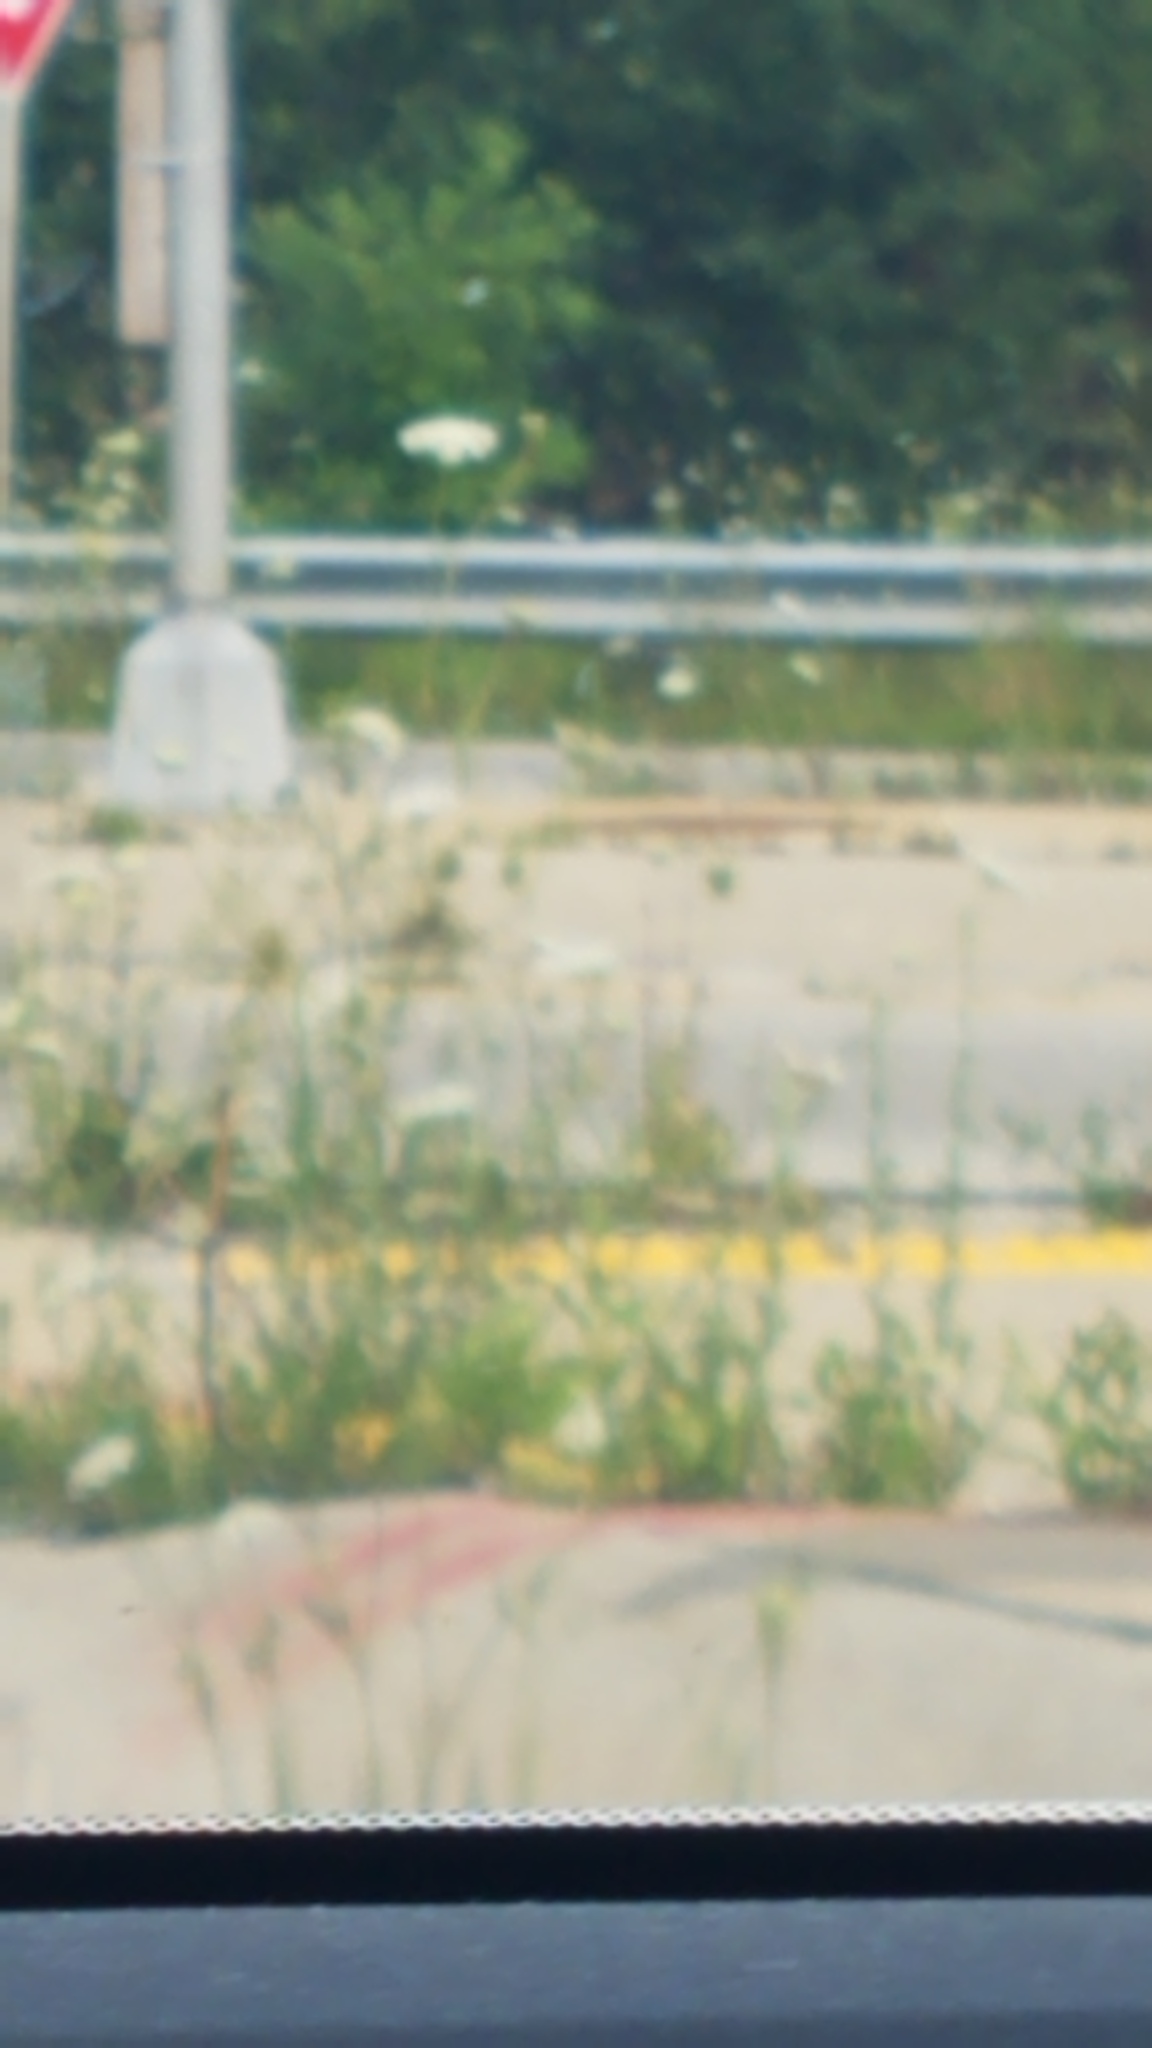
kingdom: Plantae
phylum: Tracheophyta
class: Magnoliopsida
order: Apiales
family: Apiaceae
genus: Daucus
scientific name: Daucus carota
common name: Wild carrot
